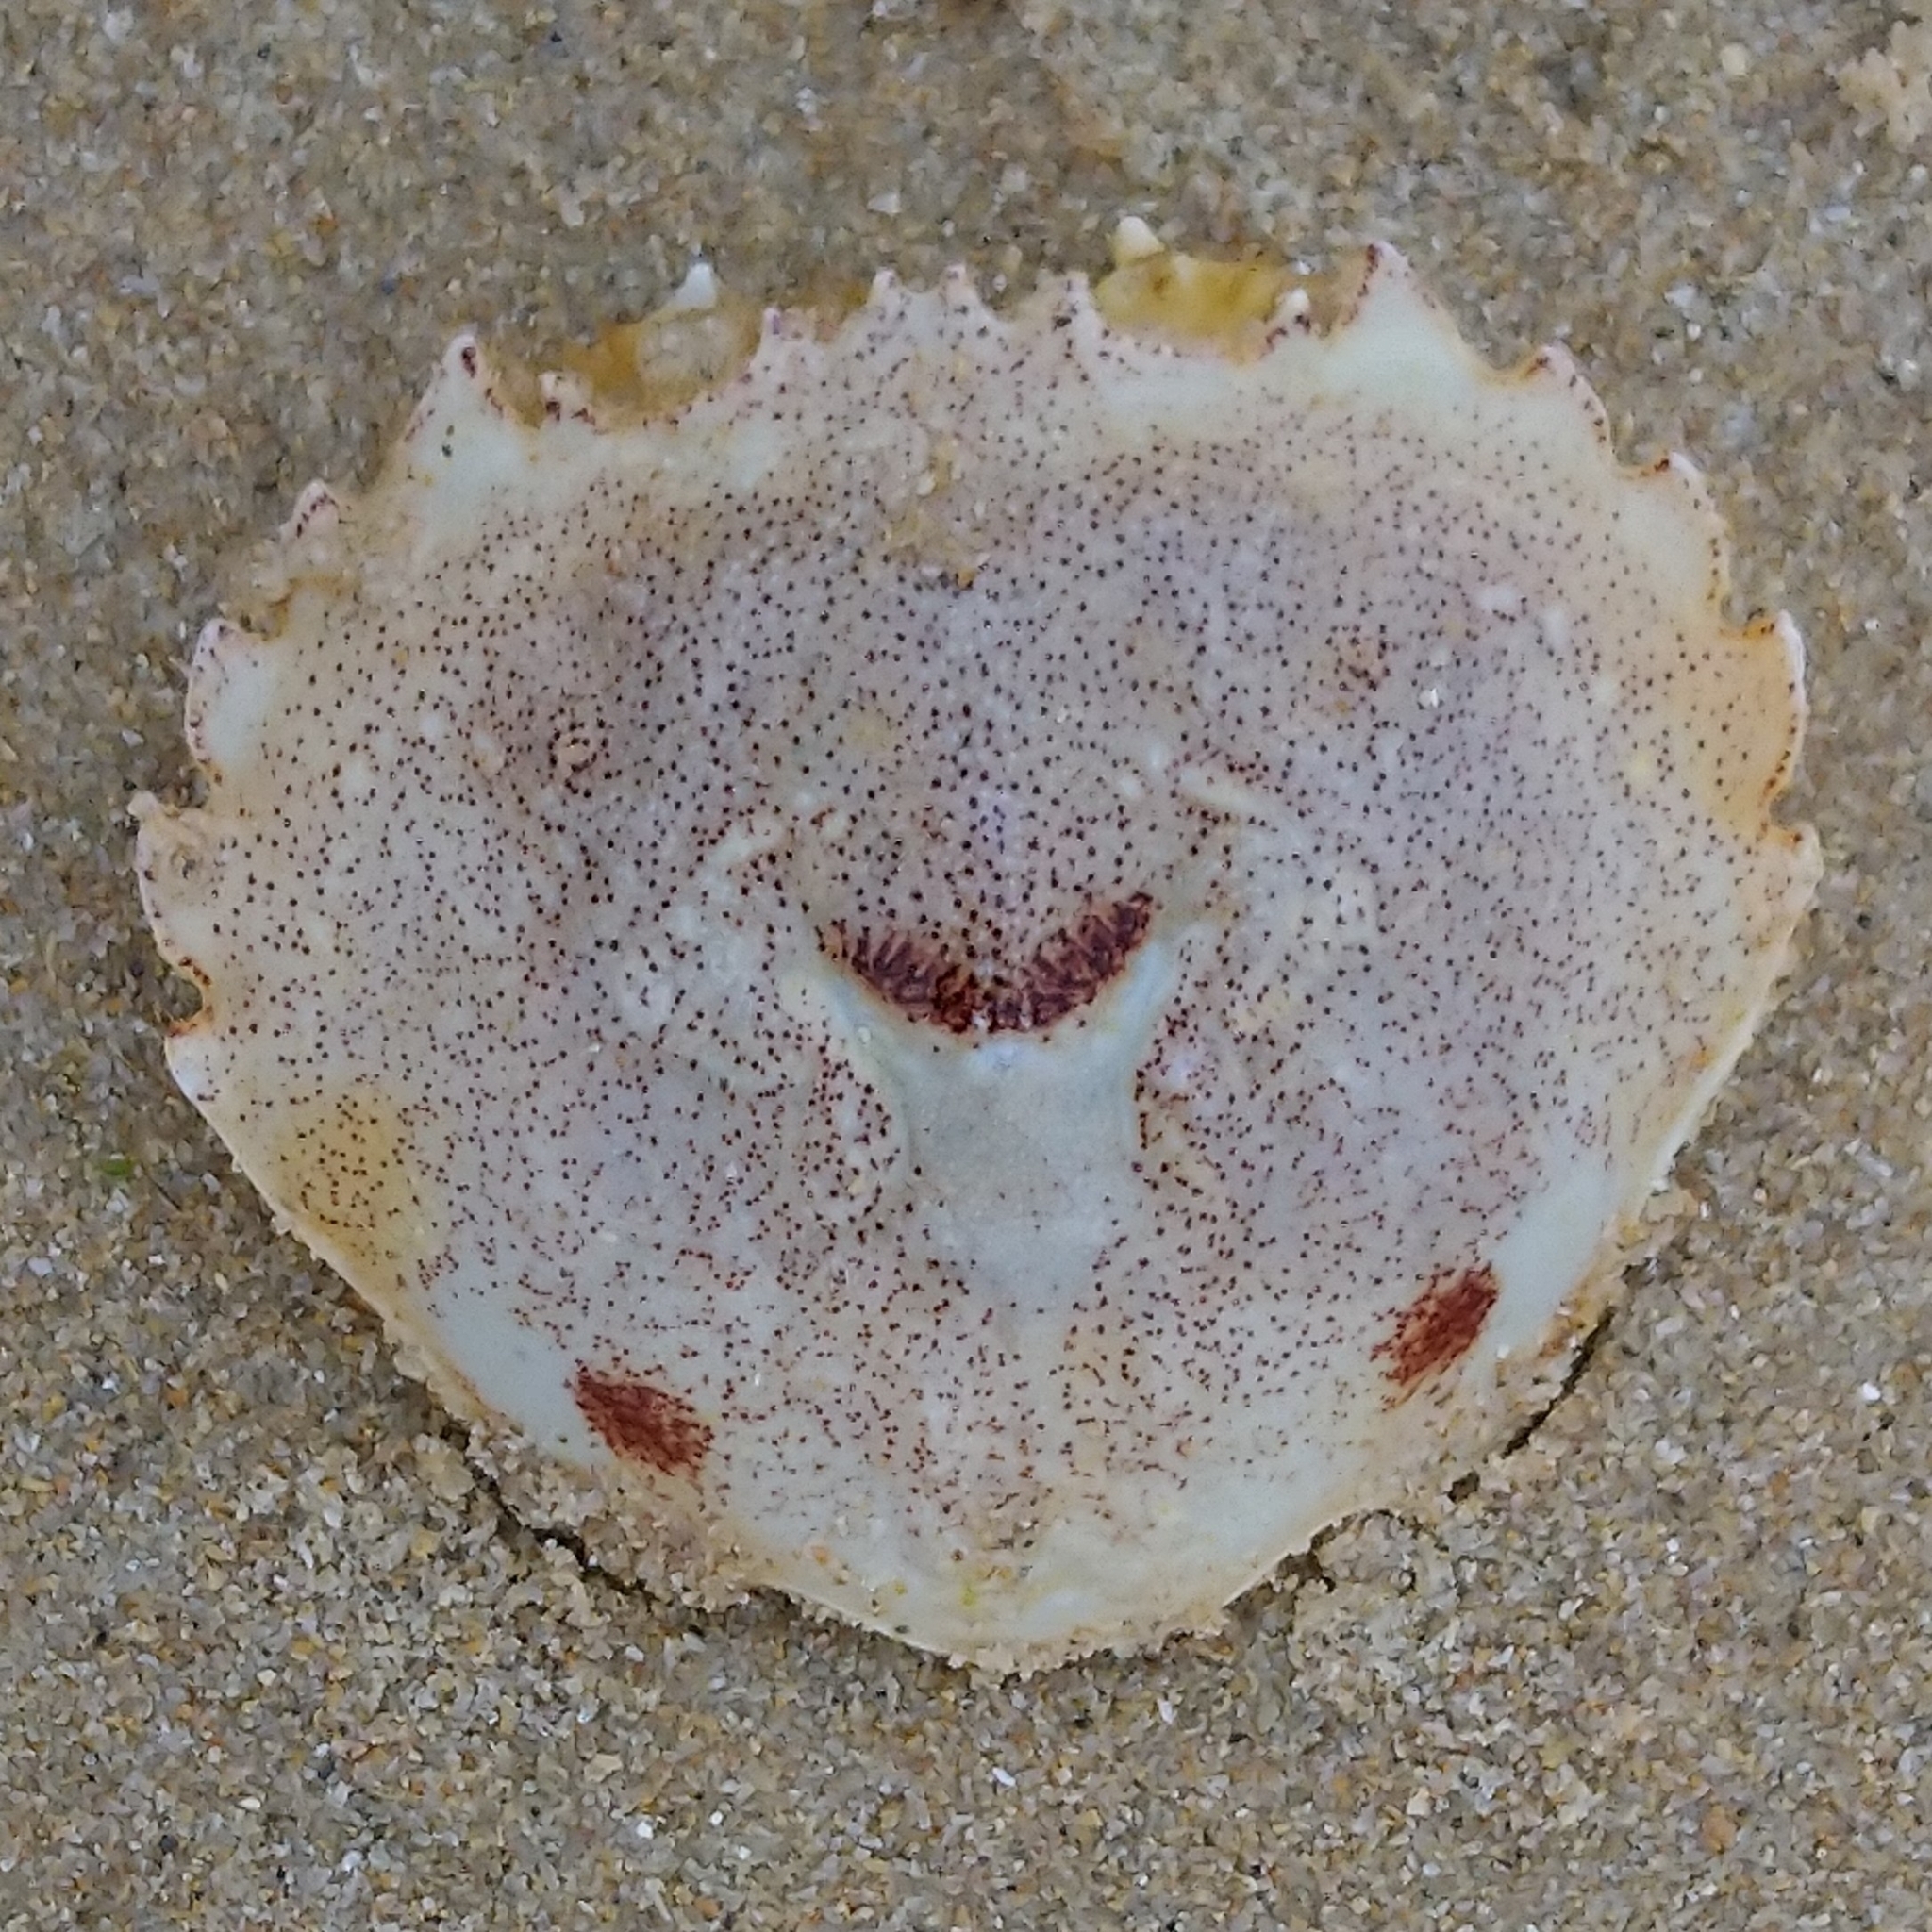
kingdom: Animalia
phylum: Arthropoda
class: Malacostraca
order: Decapoda
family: Ovalipidae
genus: Ovalipes
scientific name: Ovalipes trimaculatus
